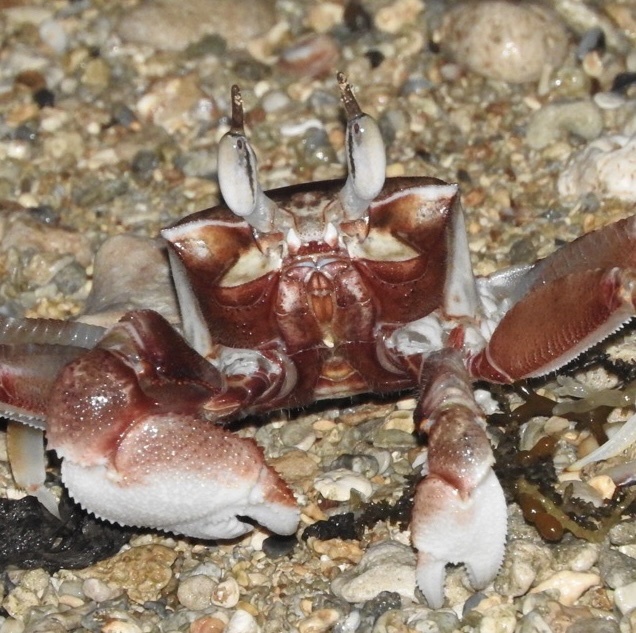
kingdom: Animalia
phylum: Arthropoda
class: Malacostraca
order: Decapoda
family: Ocypodidae
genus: Ocypode
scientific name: Ocypode ceratophthalmus
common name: Indo-pacific ghost crab
